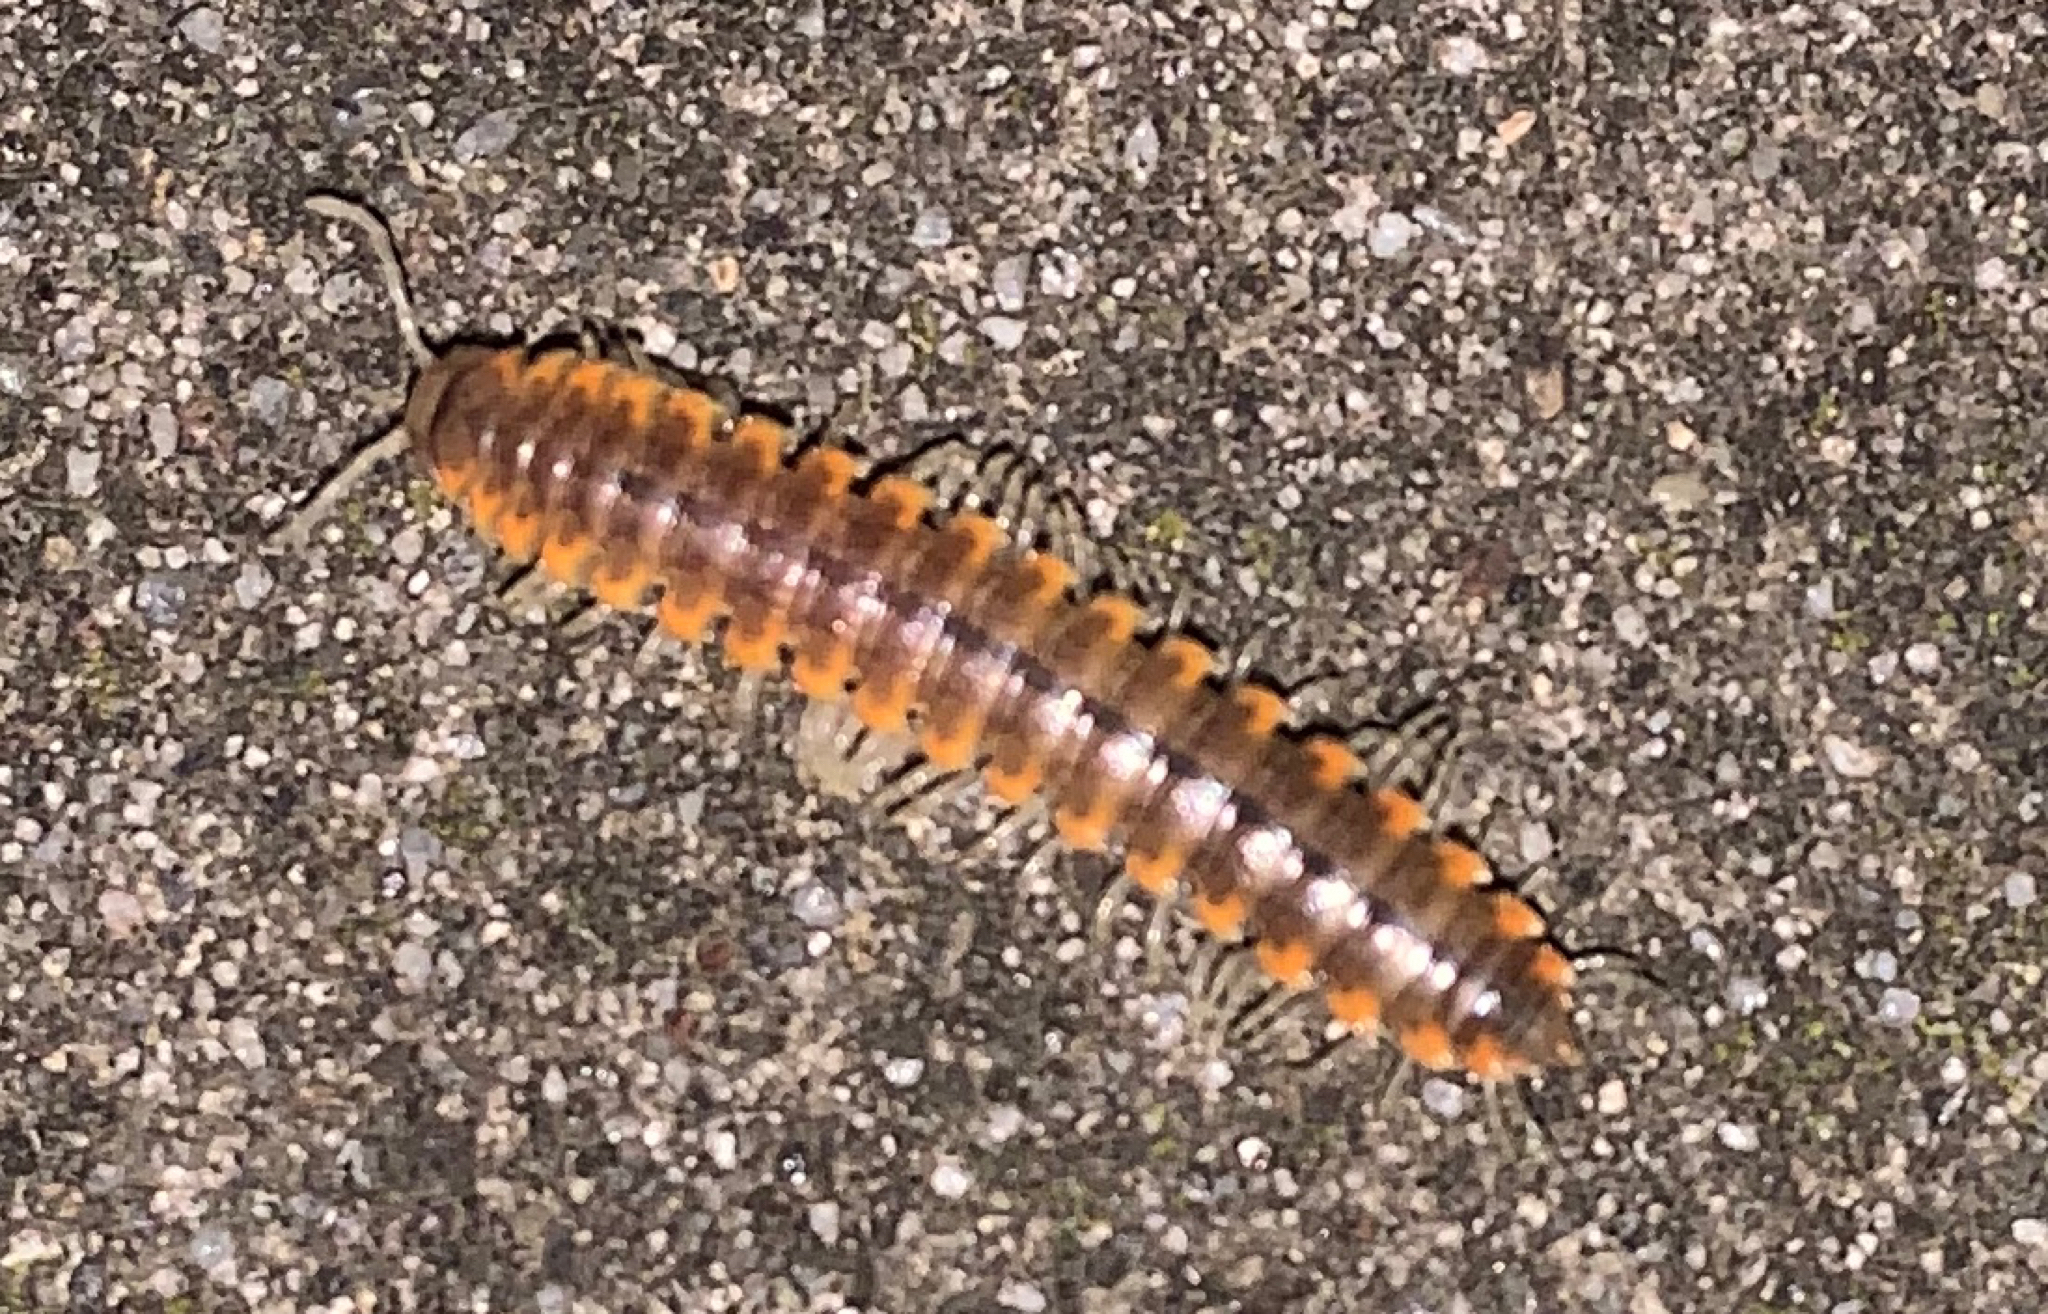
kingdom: Animalia
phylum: Arthropoda
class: Diplopoda
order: Polydesmida
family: Xystodesmidae
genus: Xystocheir
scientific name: Xystocheir dissecta
